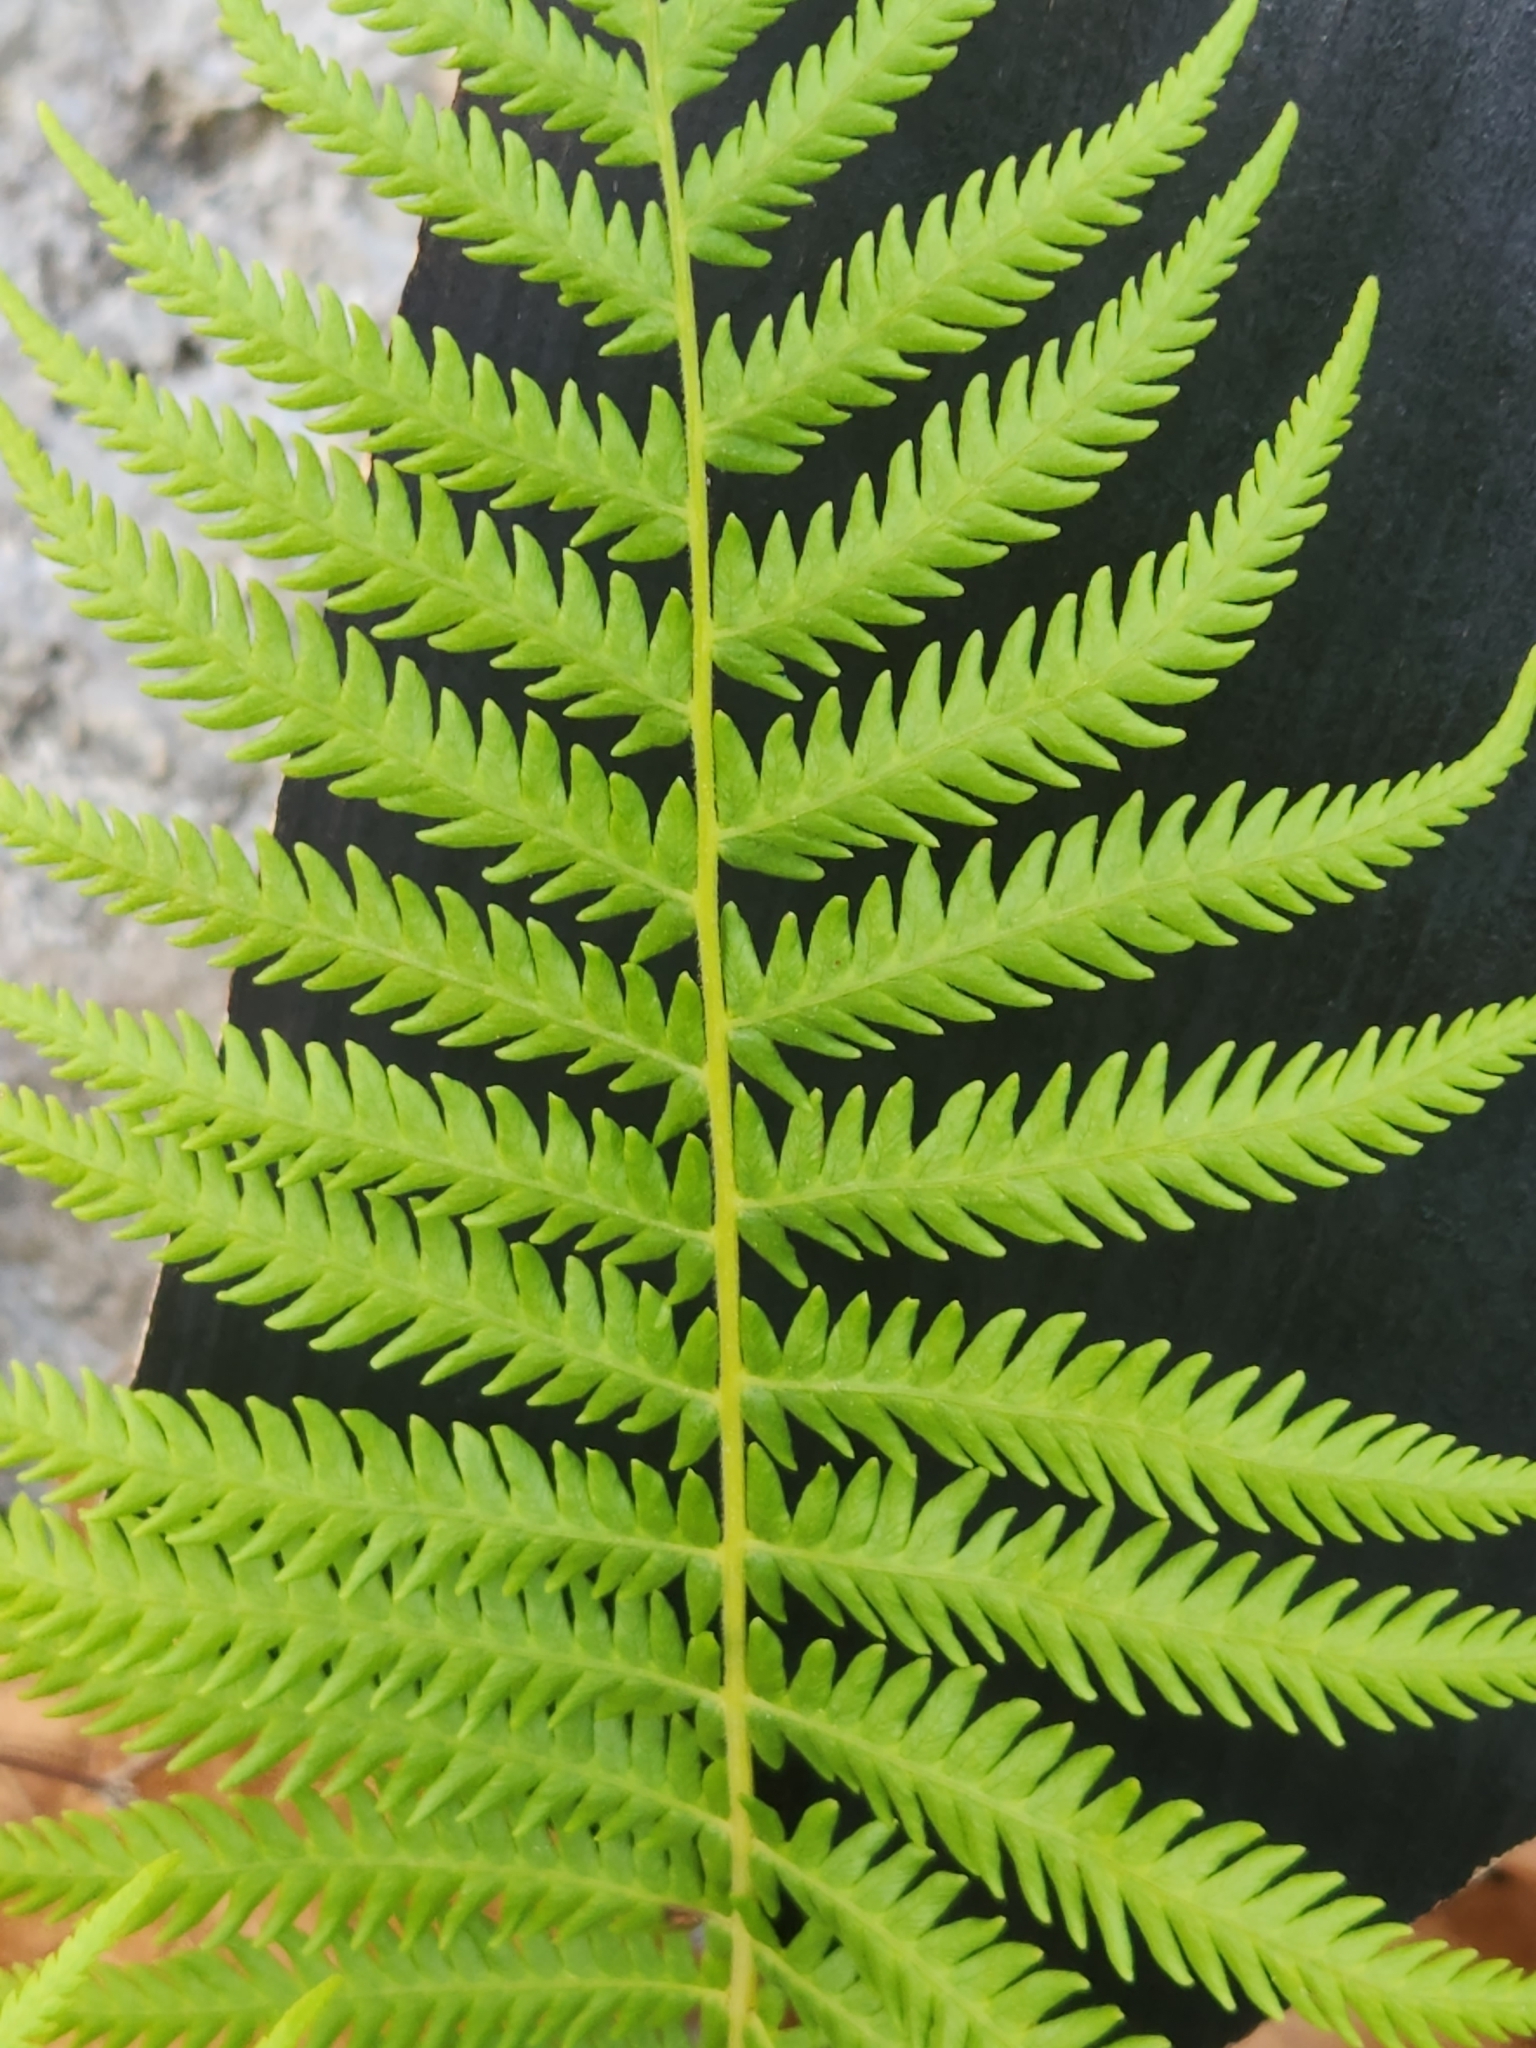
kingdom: Plantae
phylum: Tracheophyta
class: Polypodiopsida
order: Polypodiales
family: Thelypteridaceae
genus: Pelazoneuron
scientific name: Pelazoneuron ovatum
